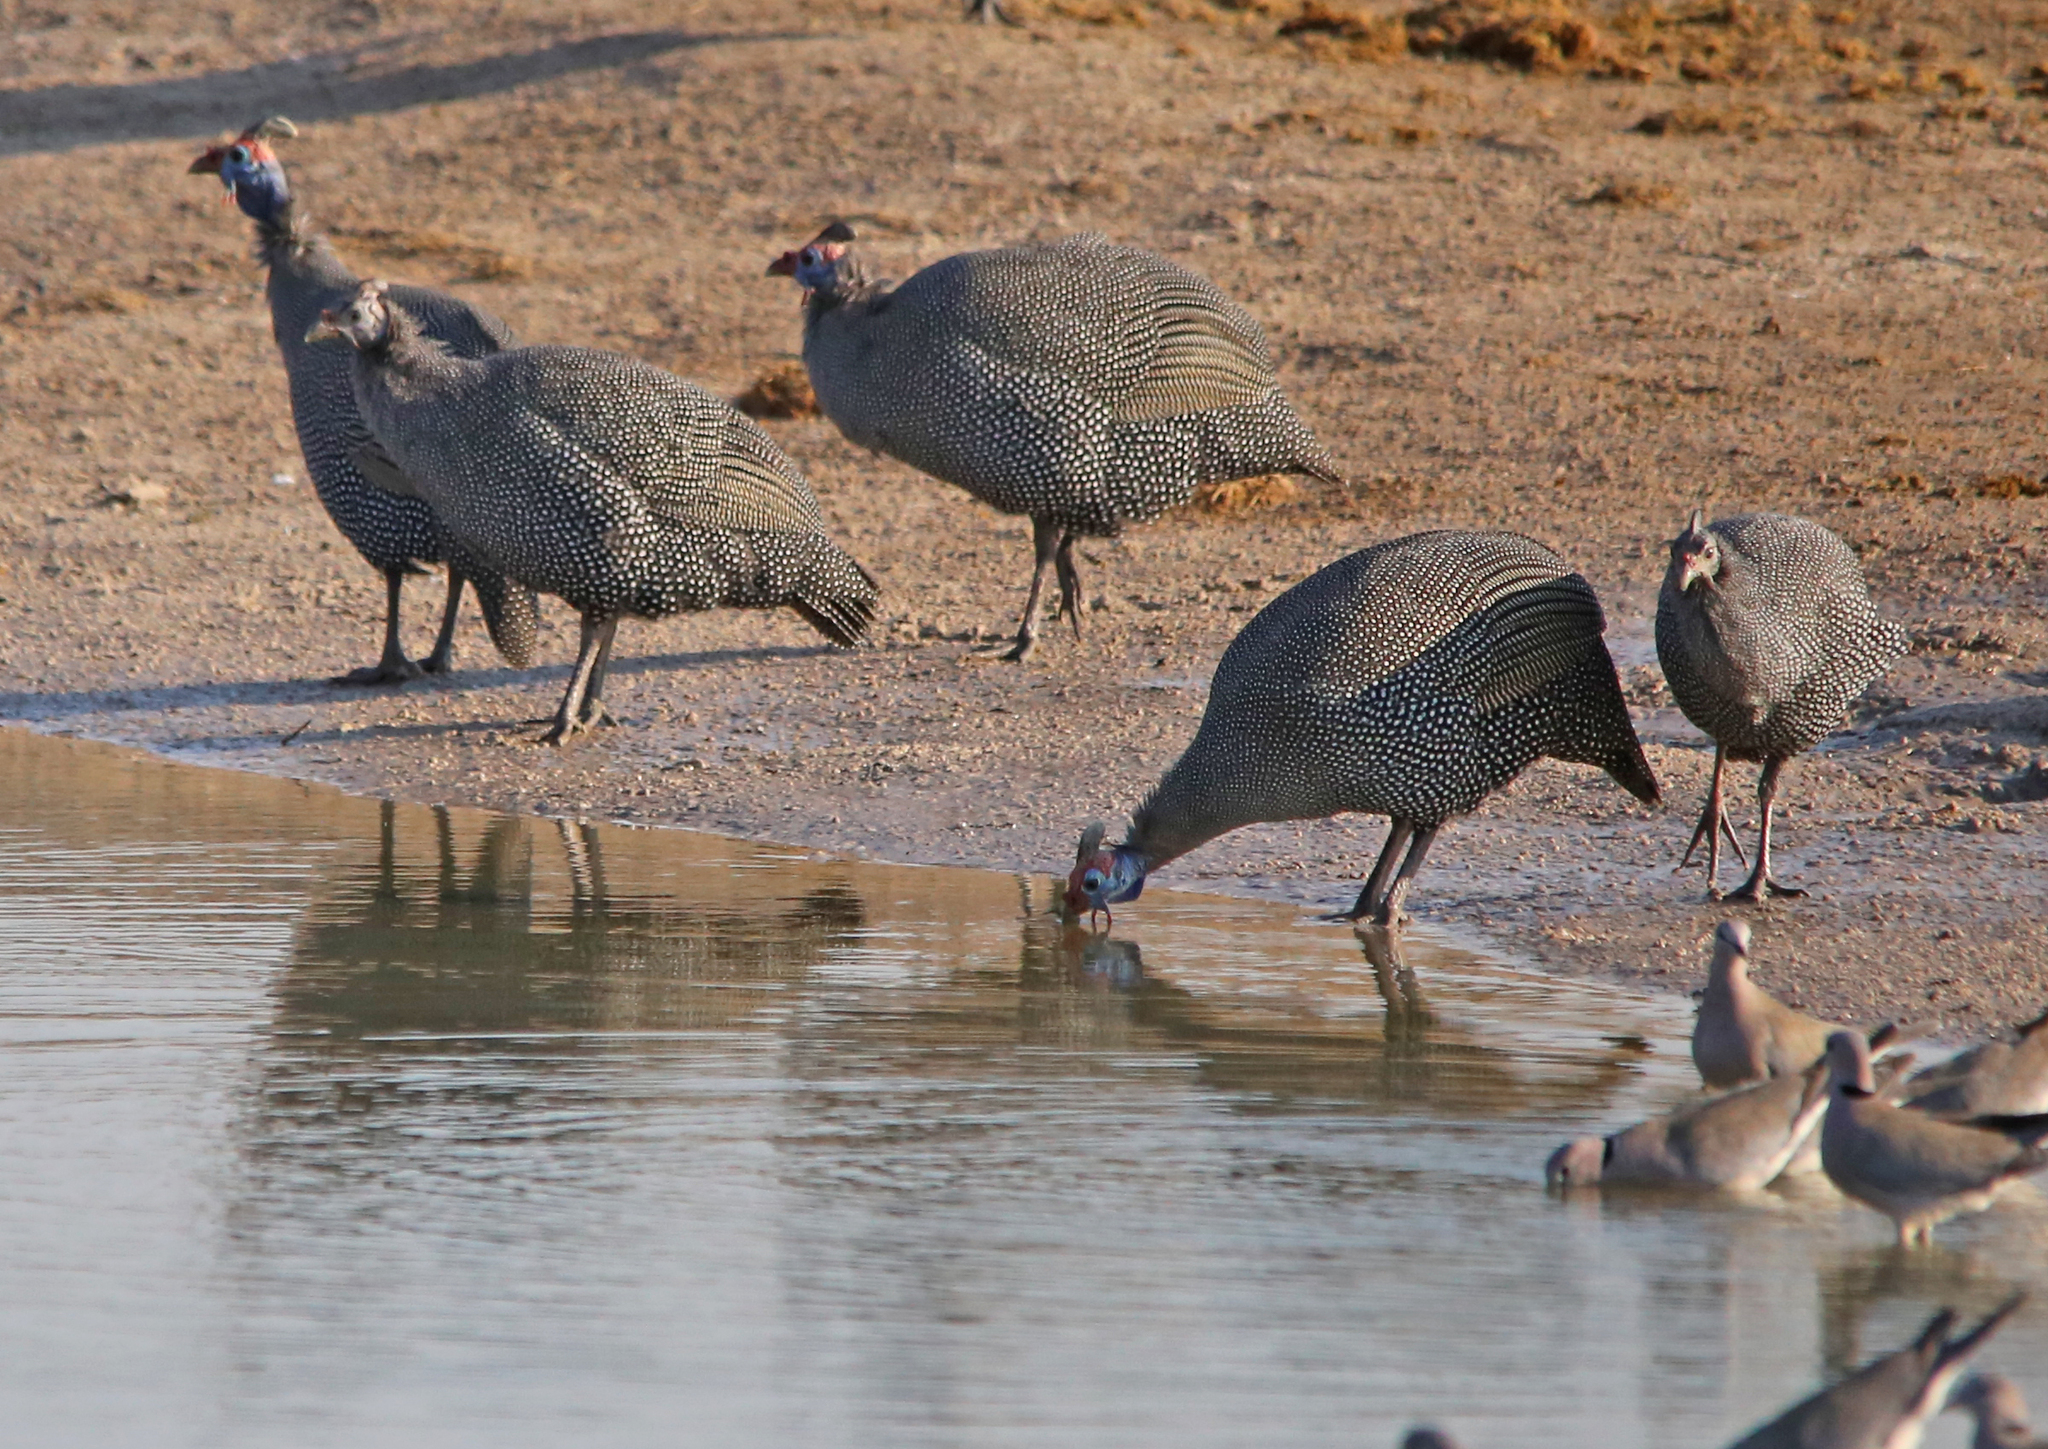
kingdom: Animalia
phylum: Chordata
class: Aves
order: Galliformes
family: Numididae
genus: Numida
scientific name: Numida meleagris
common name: Helmeted guineafowl
